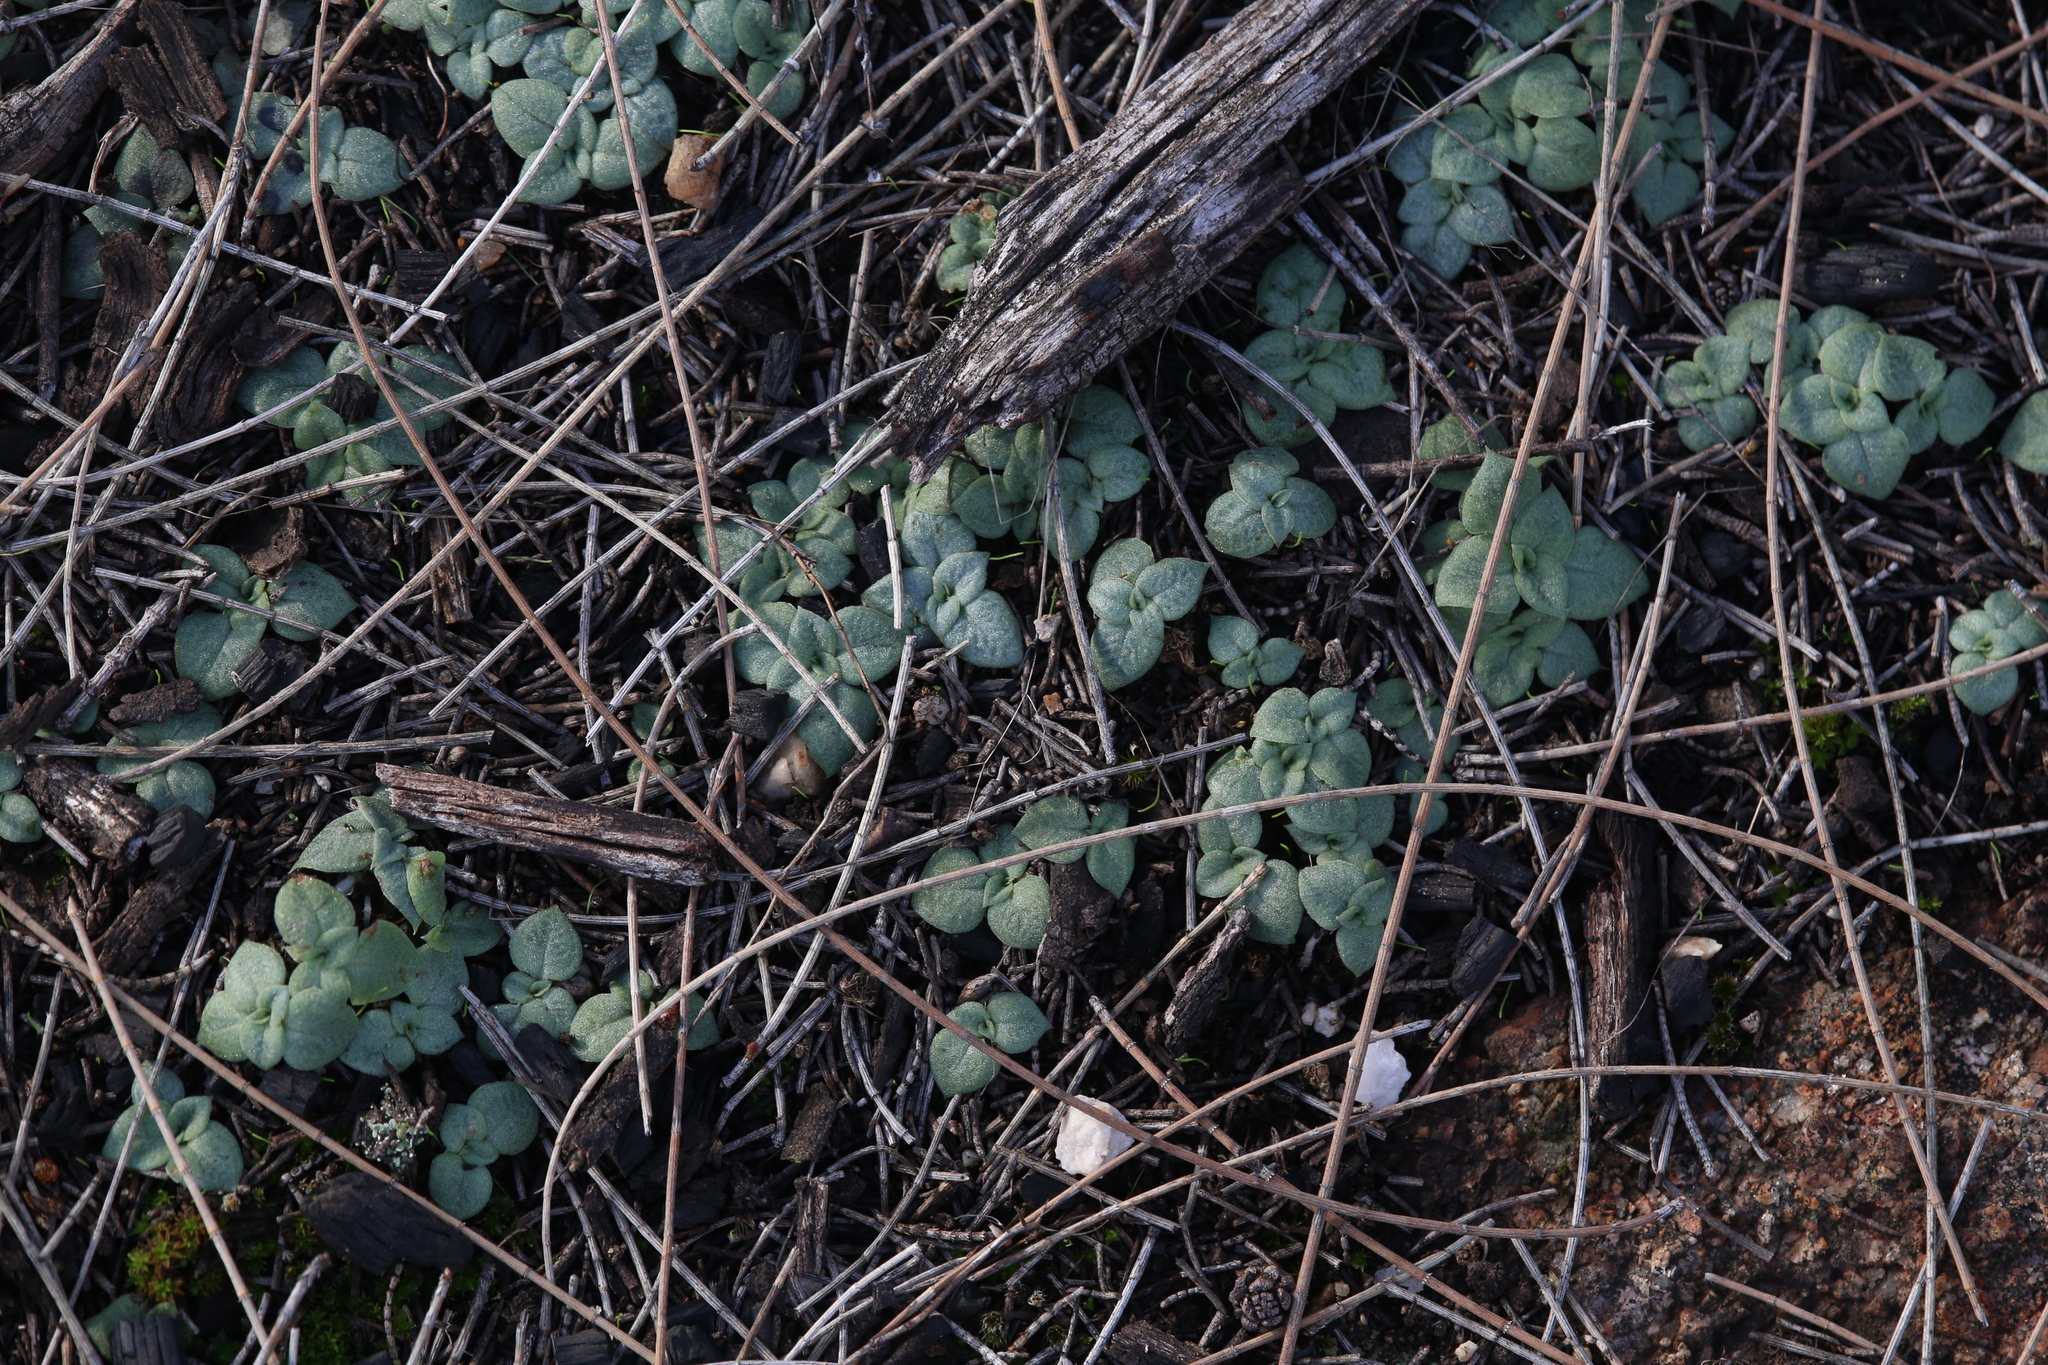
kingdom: Plantae
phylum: Tracheophyta
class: Liliopsida
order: Asparagales
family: Orchidaceae
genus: Pterostylis
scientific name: Pterostylis hamiltonii
